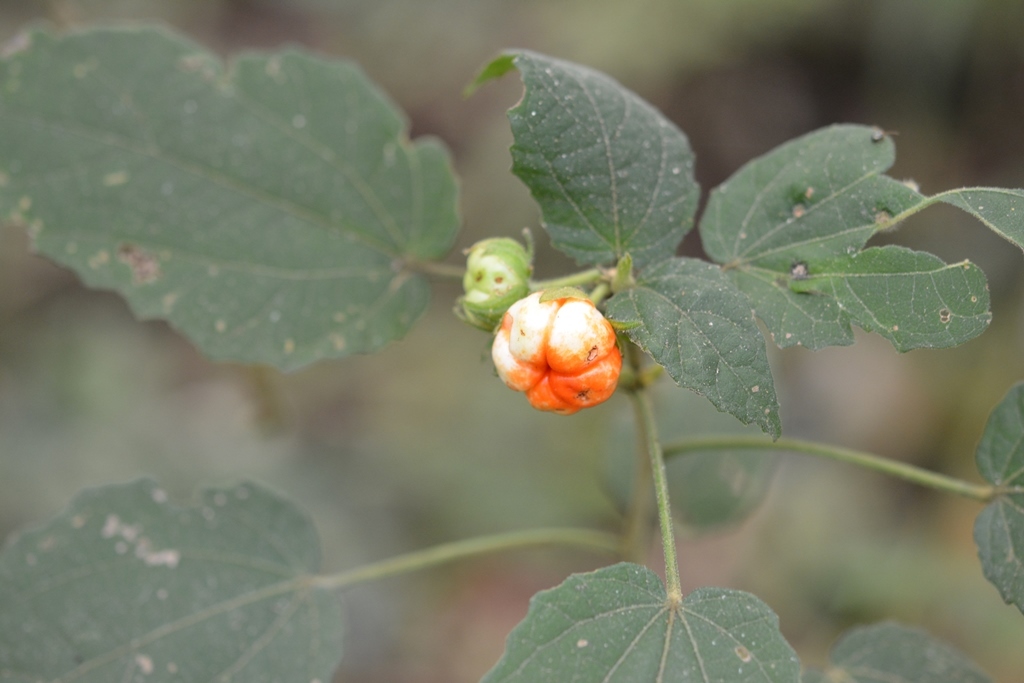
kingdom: Plantae
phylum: Tracheophyta
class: Magnoliopsida
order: Malvales
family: Malvaceae
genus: Malvaviscus
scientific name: Malvaviscus arboreus
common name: Wax mallow
